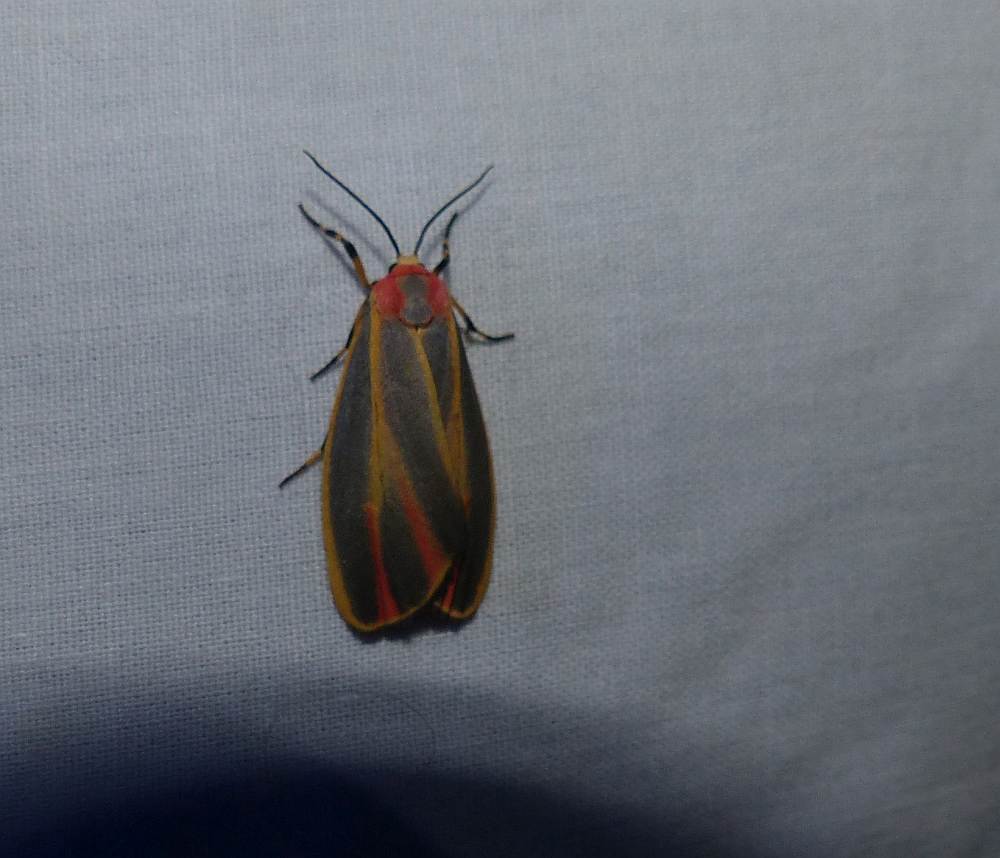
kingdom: Animalia
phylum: Arthropoda
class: Insecta
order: Lepidoptera
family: Erebidae
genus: Hypoprepia
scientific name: Hypoprepia fucosa
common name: Painted lichen moth
